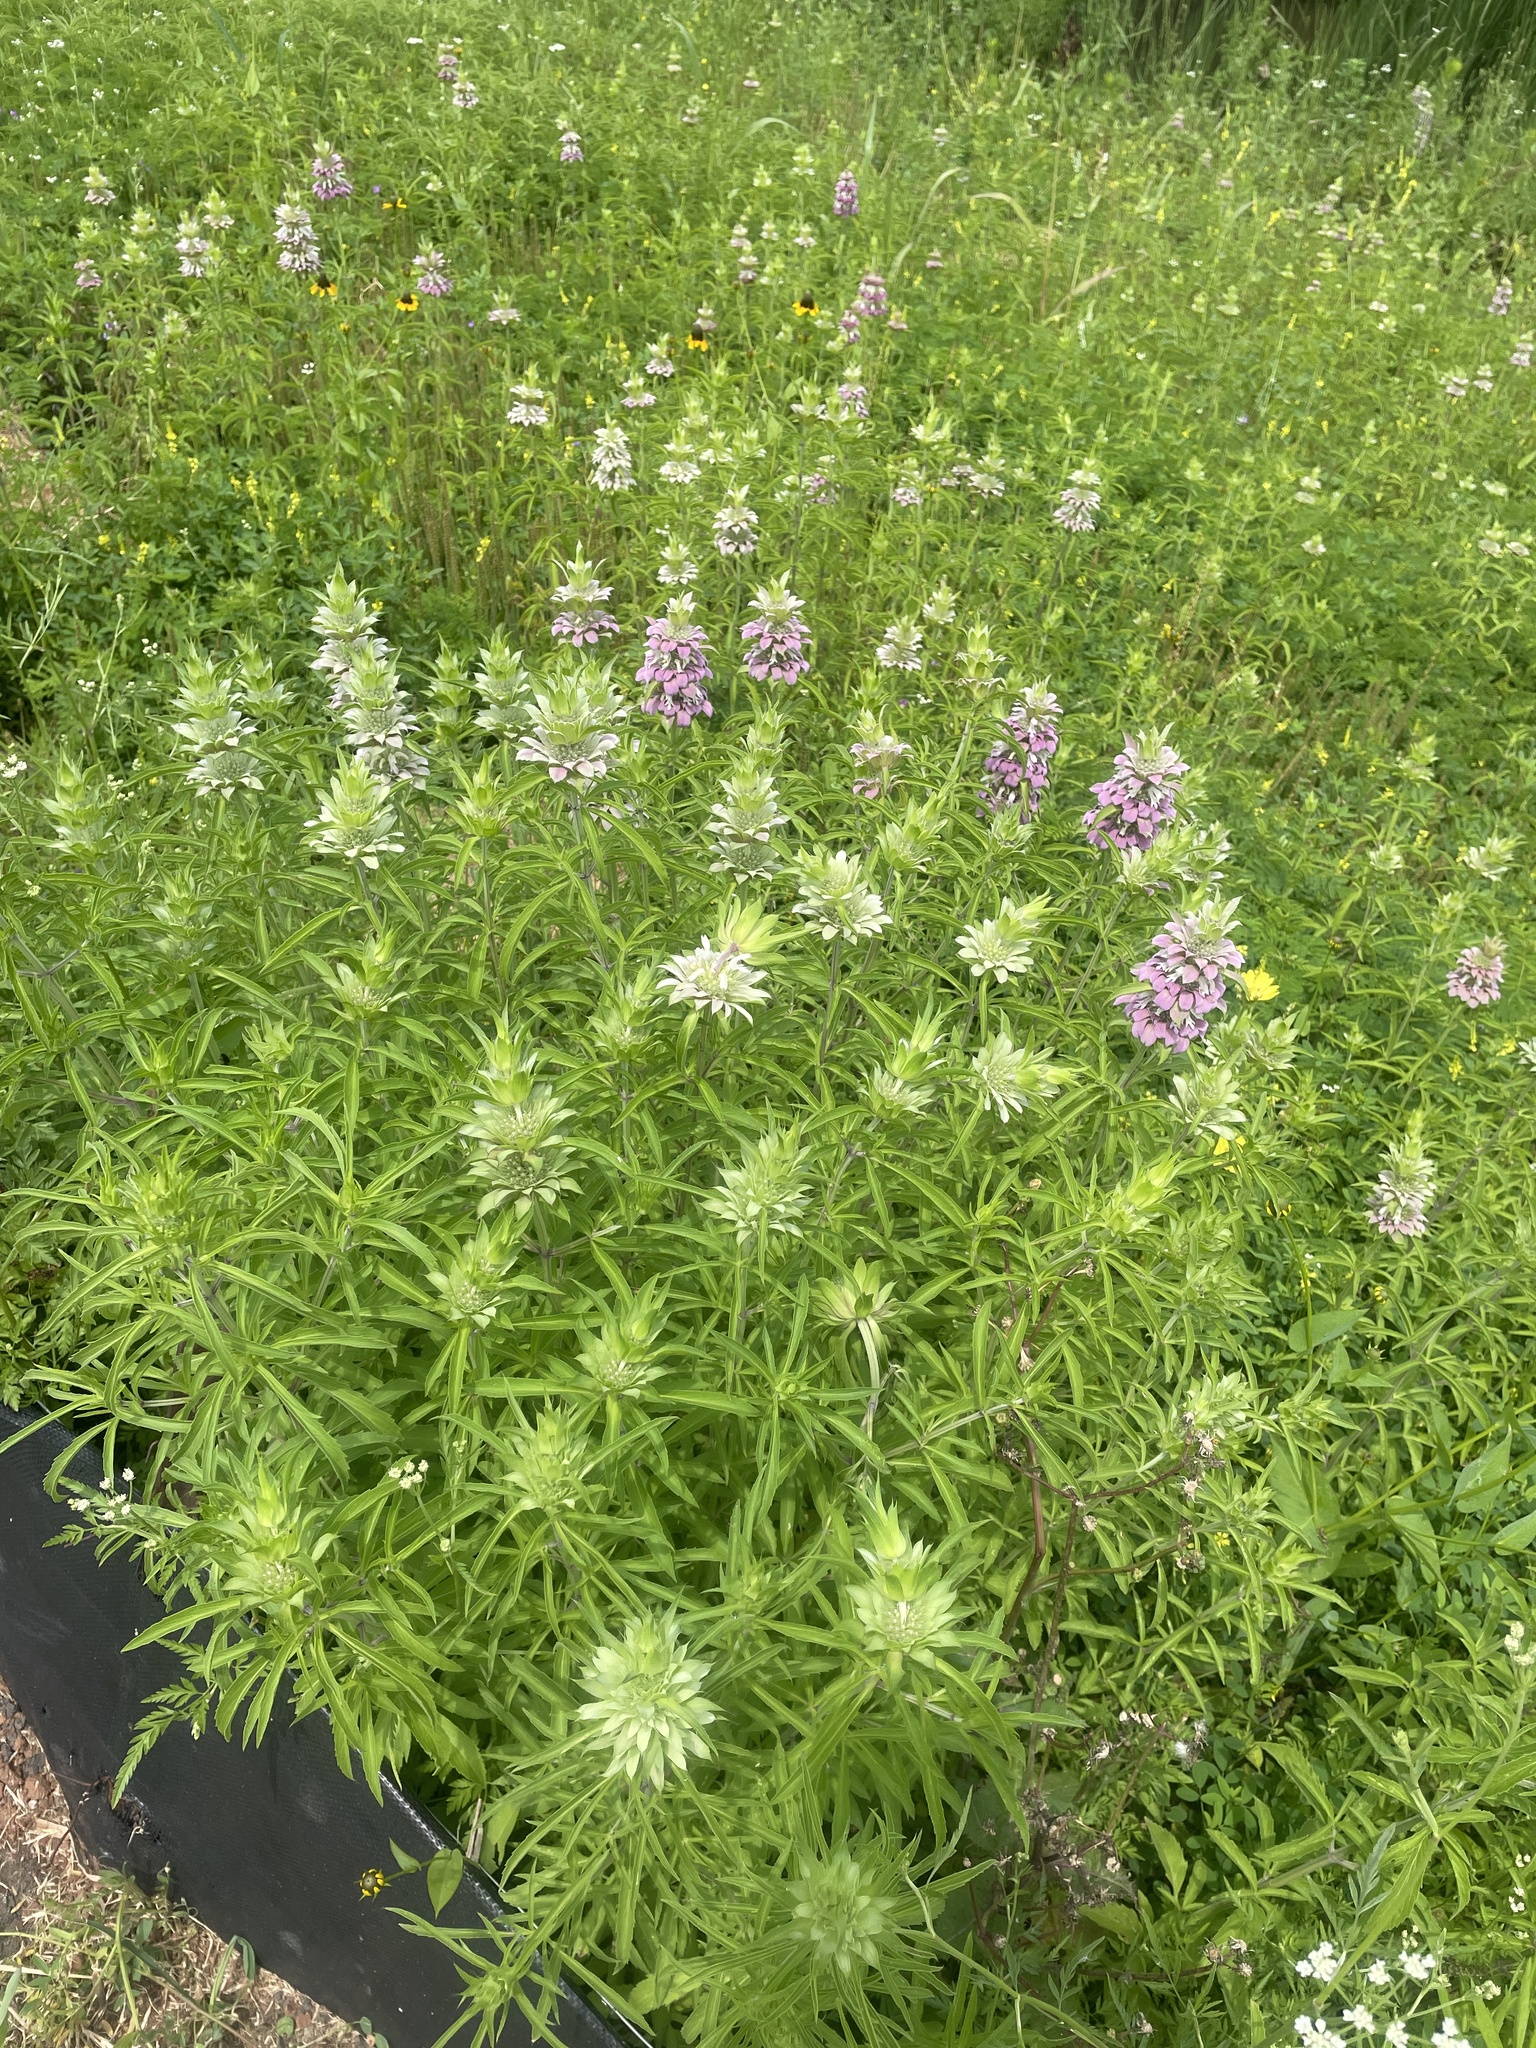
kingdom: Plantae
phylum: Tracheophyta
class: Magnoliopsida
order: Lamiales
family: Lamiaceae
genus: Monarda
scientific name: Monarda citriodora
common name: Lemon beebalm
